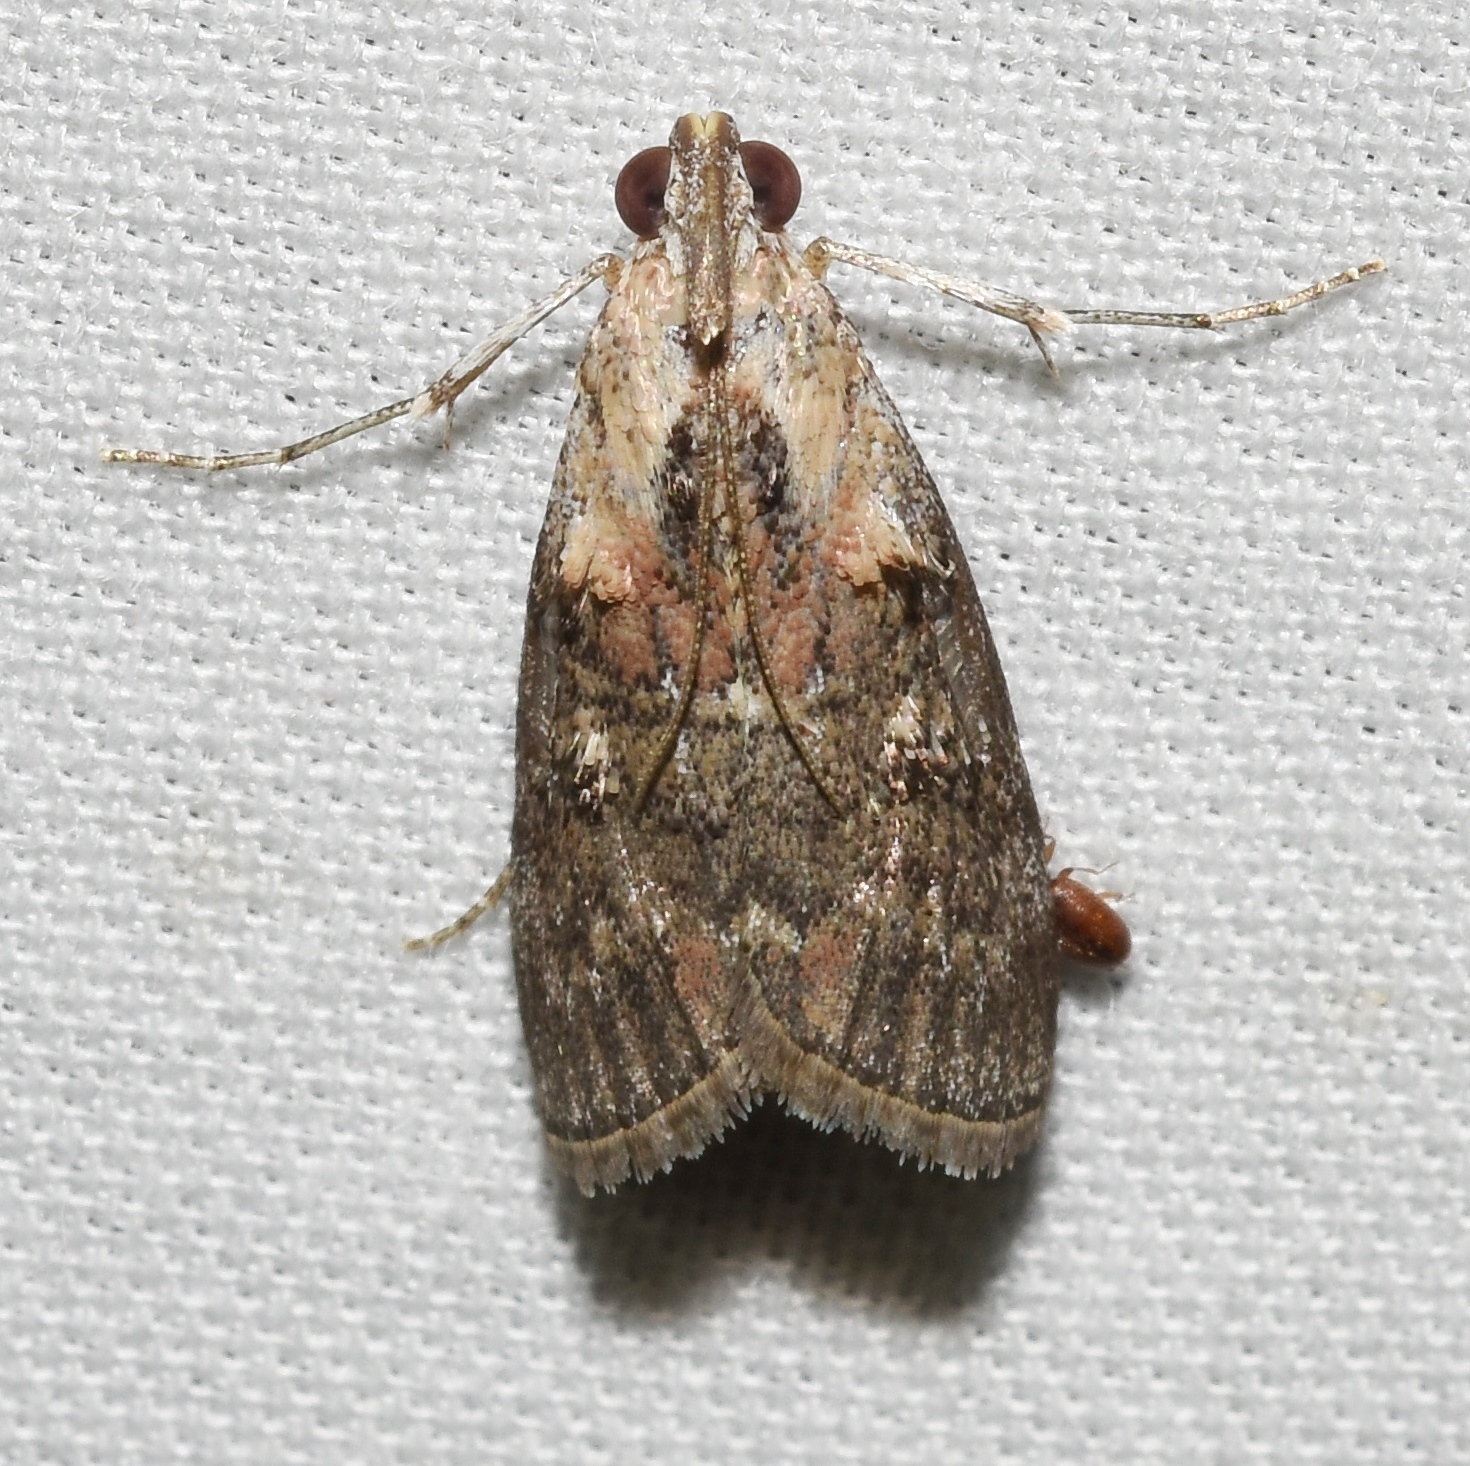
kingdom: Animalia
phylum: Arthropoda
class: Insecta
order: Lepidoptera
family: Pyralidae
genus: Pococera
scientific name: Pococera expandens
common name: Striped oak webworm moth
